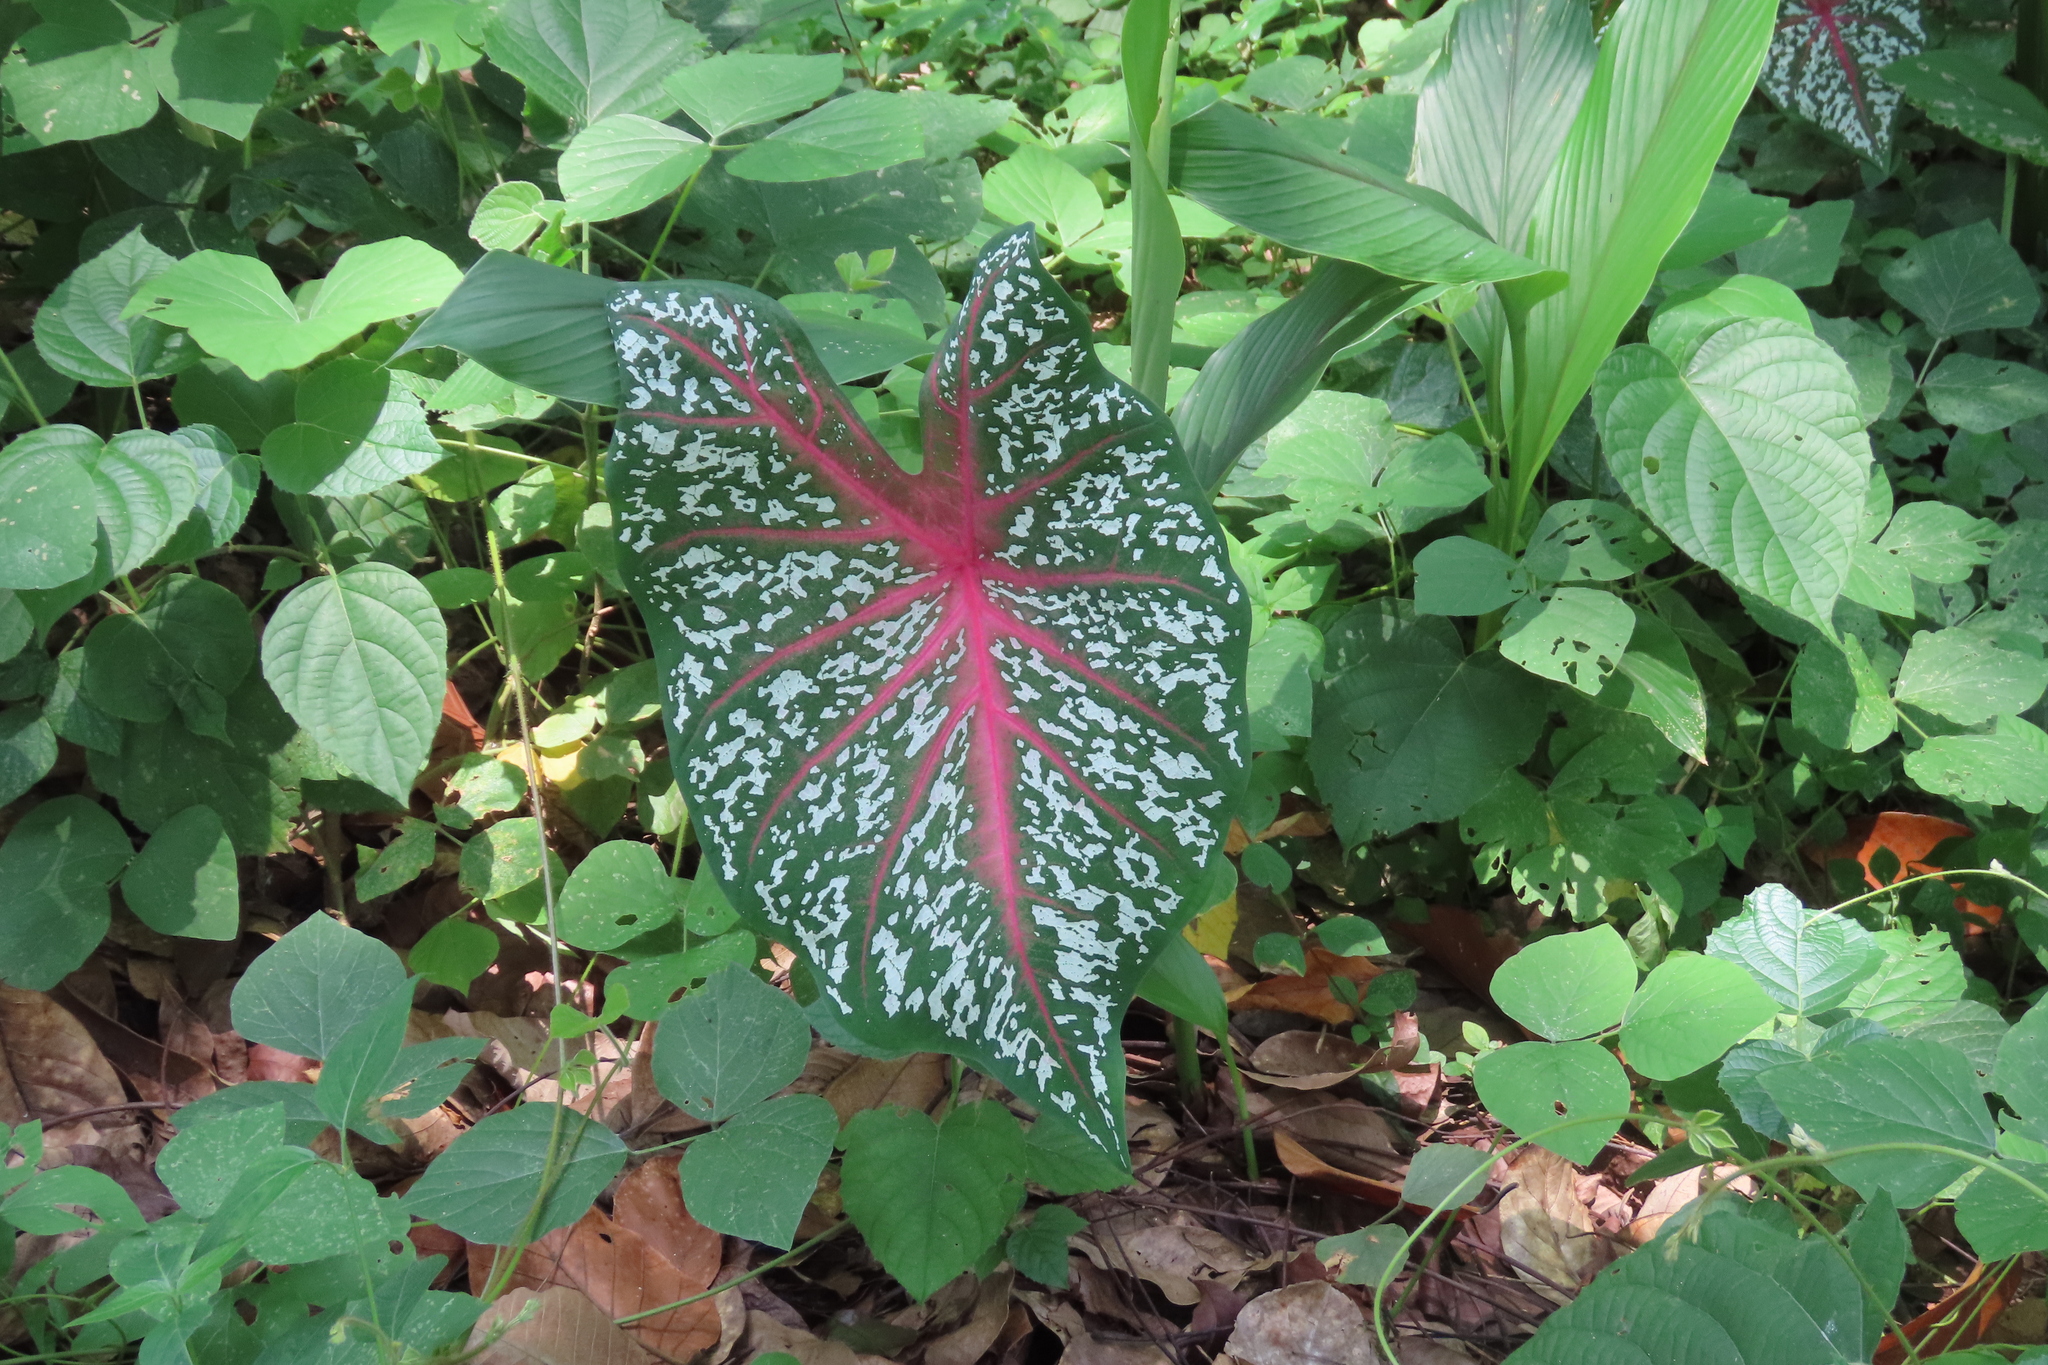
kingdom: Plantae
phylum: Tracheophyta
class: Liliopsida
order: Alismatales
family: Araceae
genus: Caladium
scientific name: Caladium bicolor
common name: Artist's pallet
